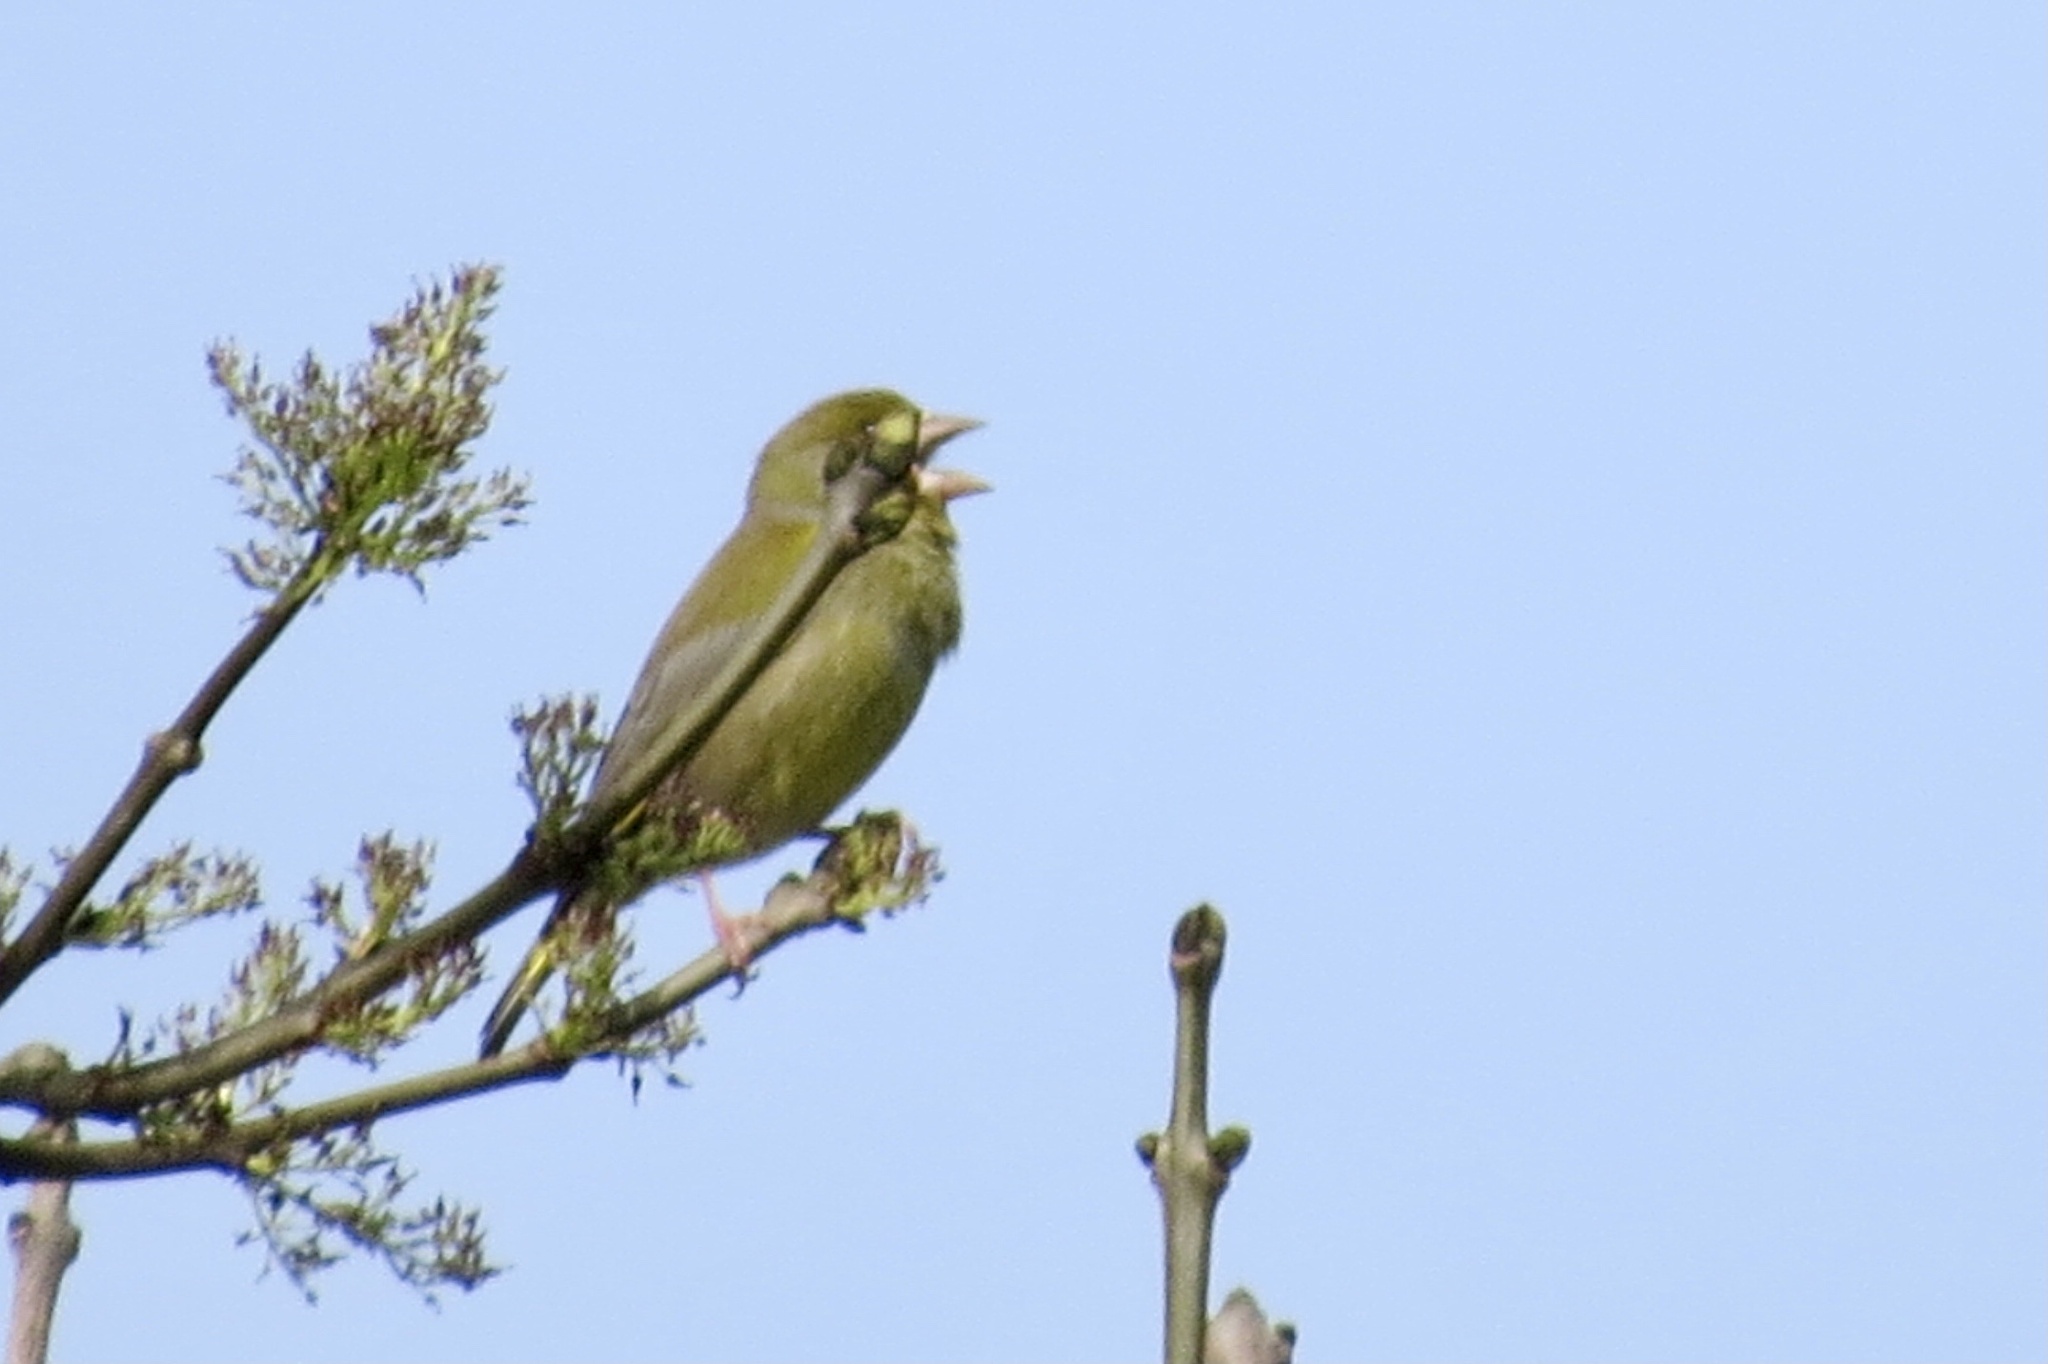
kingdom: Plantae
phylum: Tracheophyta
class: Liliopsida
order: Poales
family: Poaceae
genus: Chloris
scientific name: Chloris chloris
